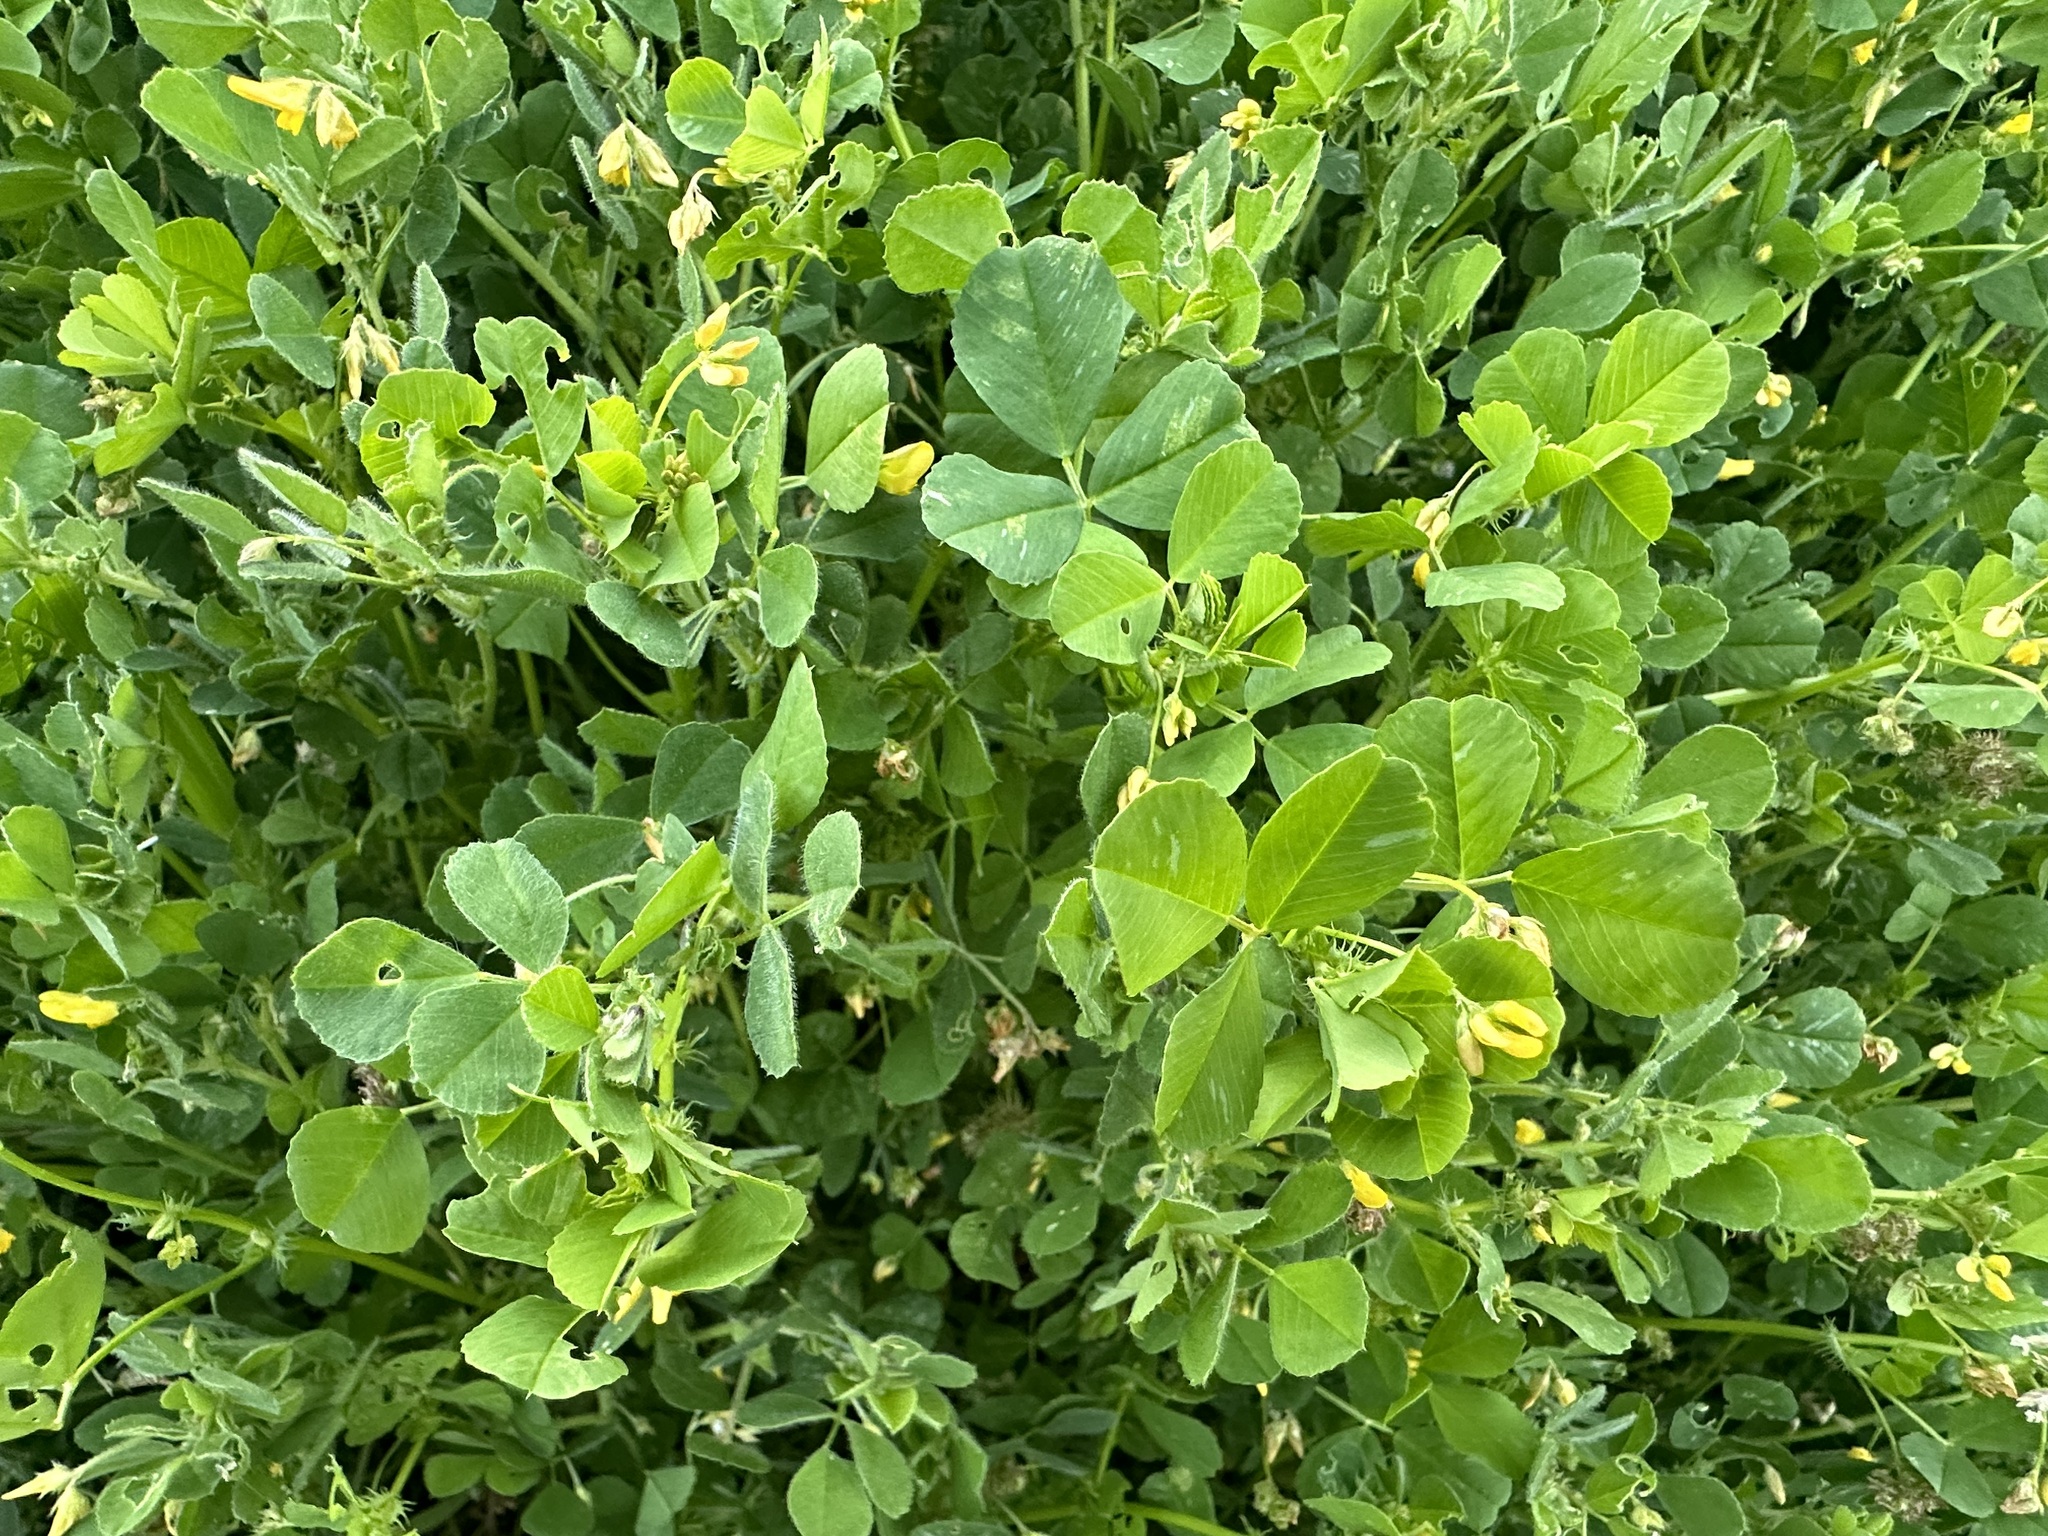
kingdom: Plantae
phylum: Tracheophyta
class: Magnoliopsida
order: Fabales
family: Fabaceae
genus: Medicago
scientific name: Medicago polymorpha
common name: Burclover
